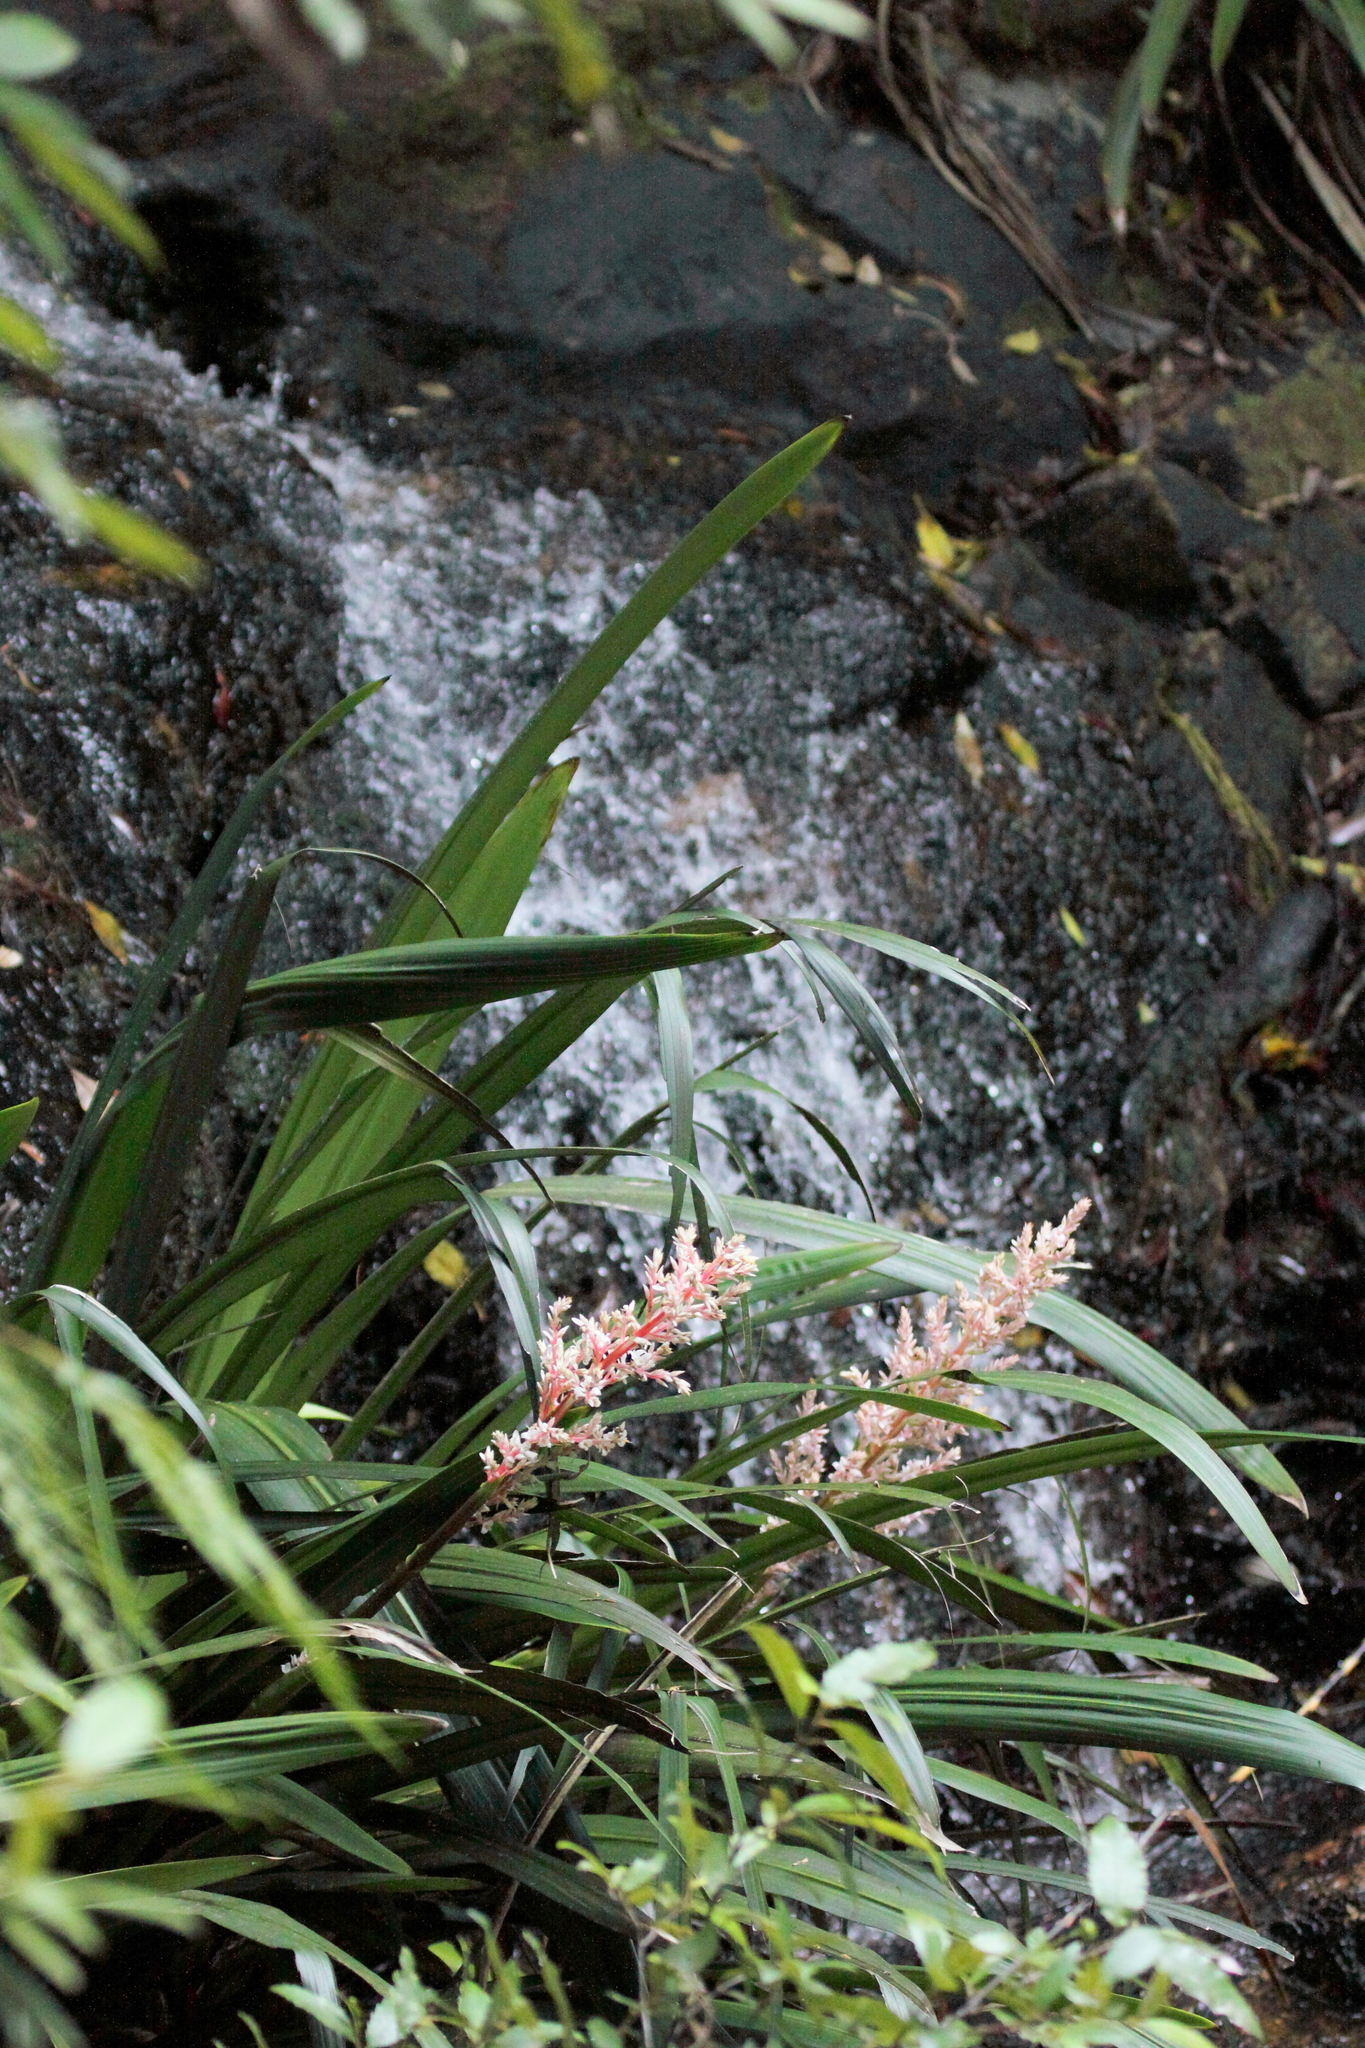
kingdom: Plantae
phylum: Tracheophyta
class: Liliopsida
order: Commelinales
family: Philydraceae
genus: Helmholtzia
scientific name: Helmholtzia glaberrima
